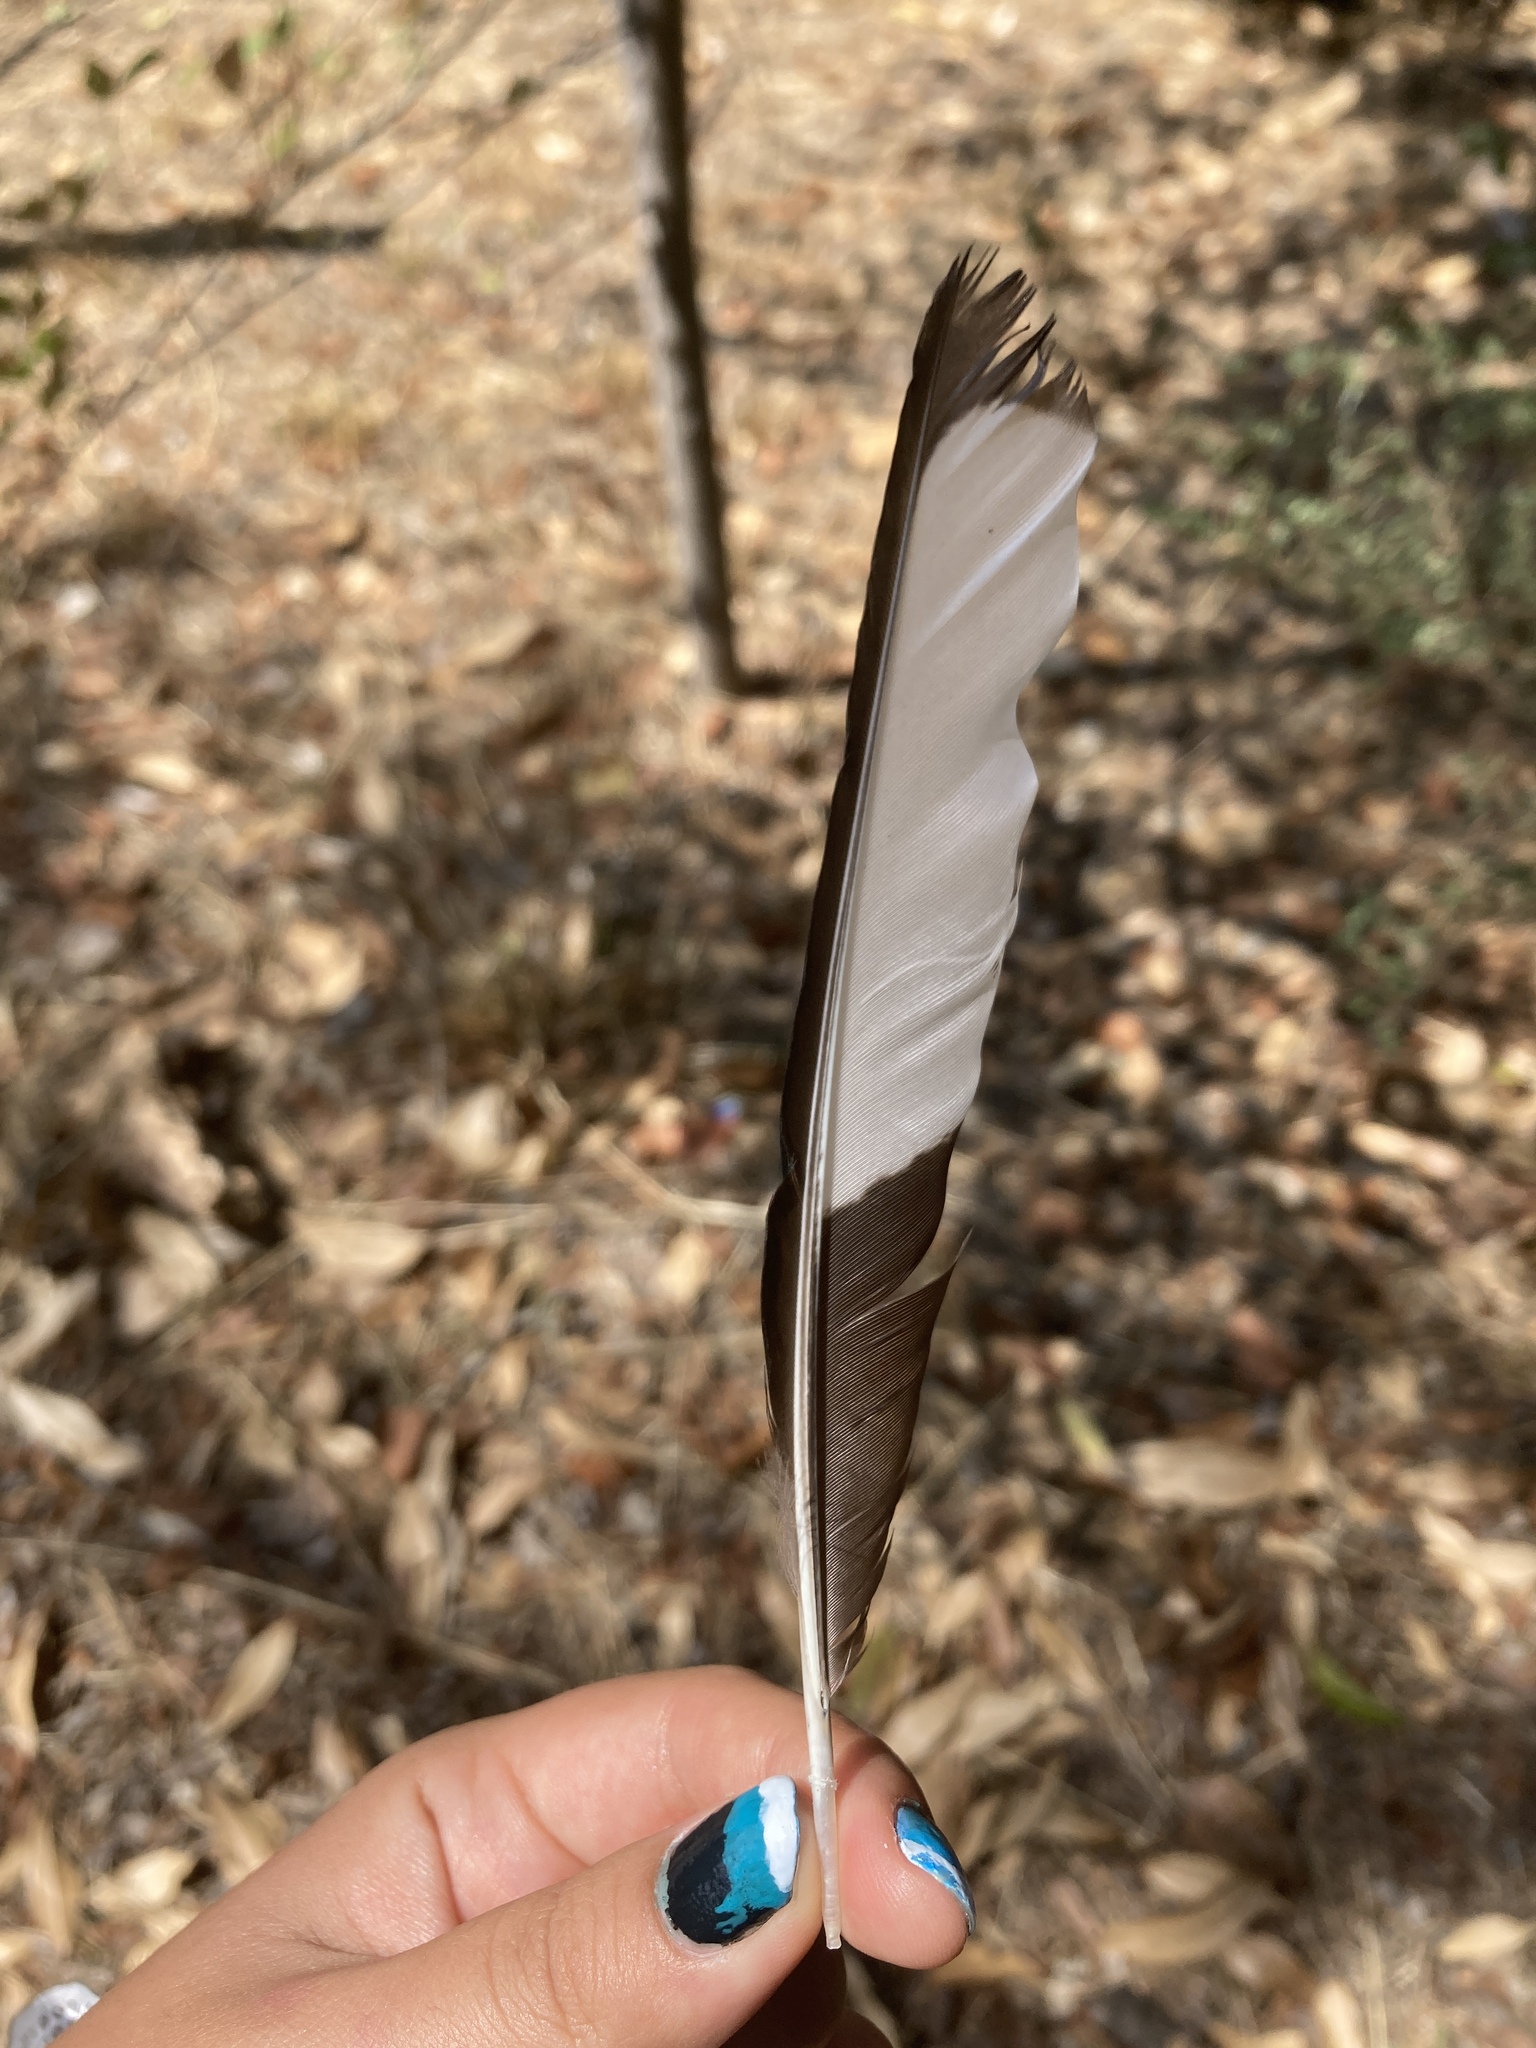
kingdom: Animalia
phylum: Chordata
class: Aves
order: Passeriformes
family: Corvidae
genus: Pica
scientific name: Pica pica
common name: Eurasian magpie
